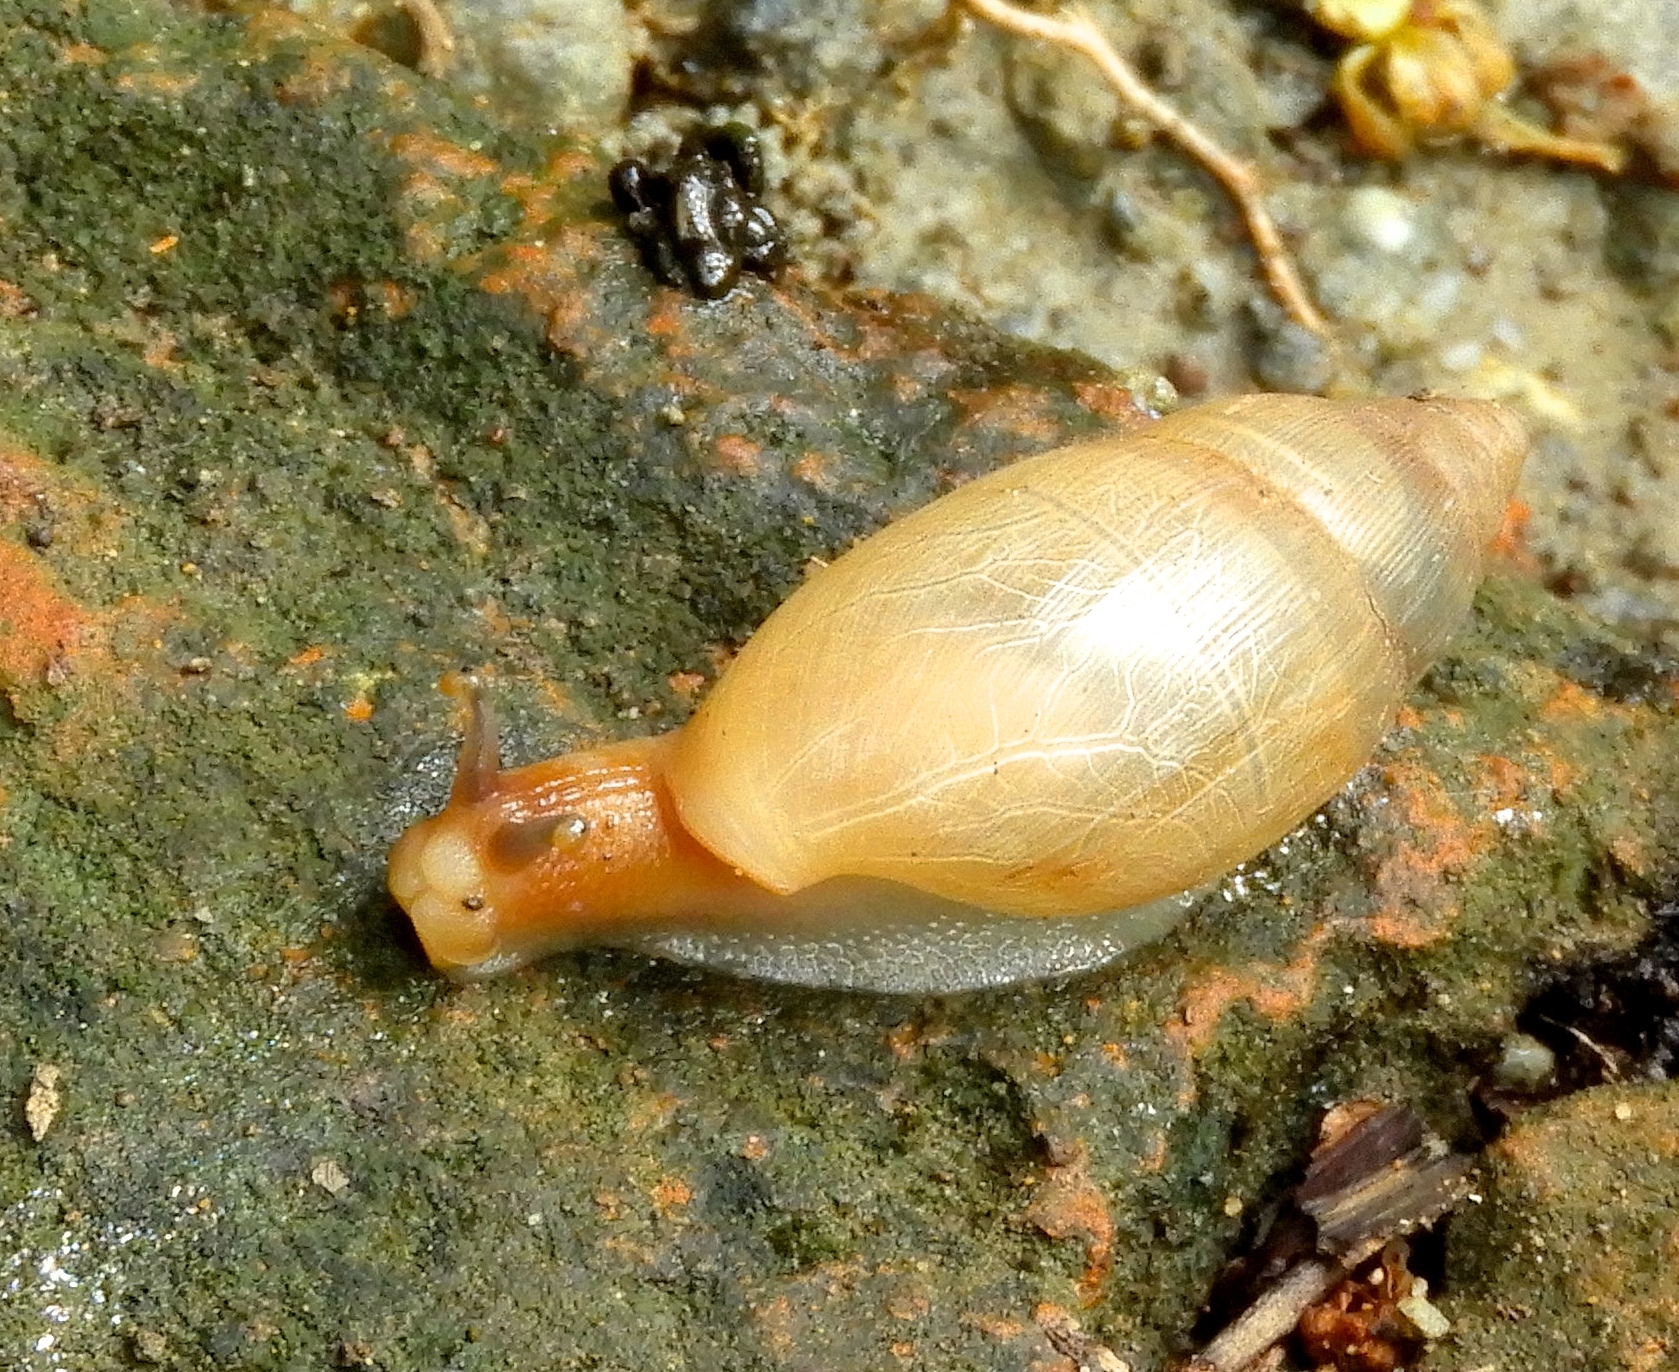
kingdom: Animalia
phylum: Mollusca
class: Gastropoda
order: Stylommatophora
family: Spiraxidae
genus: Euglandina
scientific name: Euglandina
